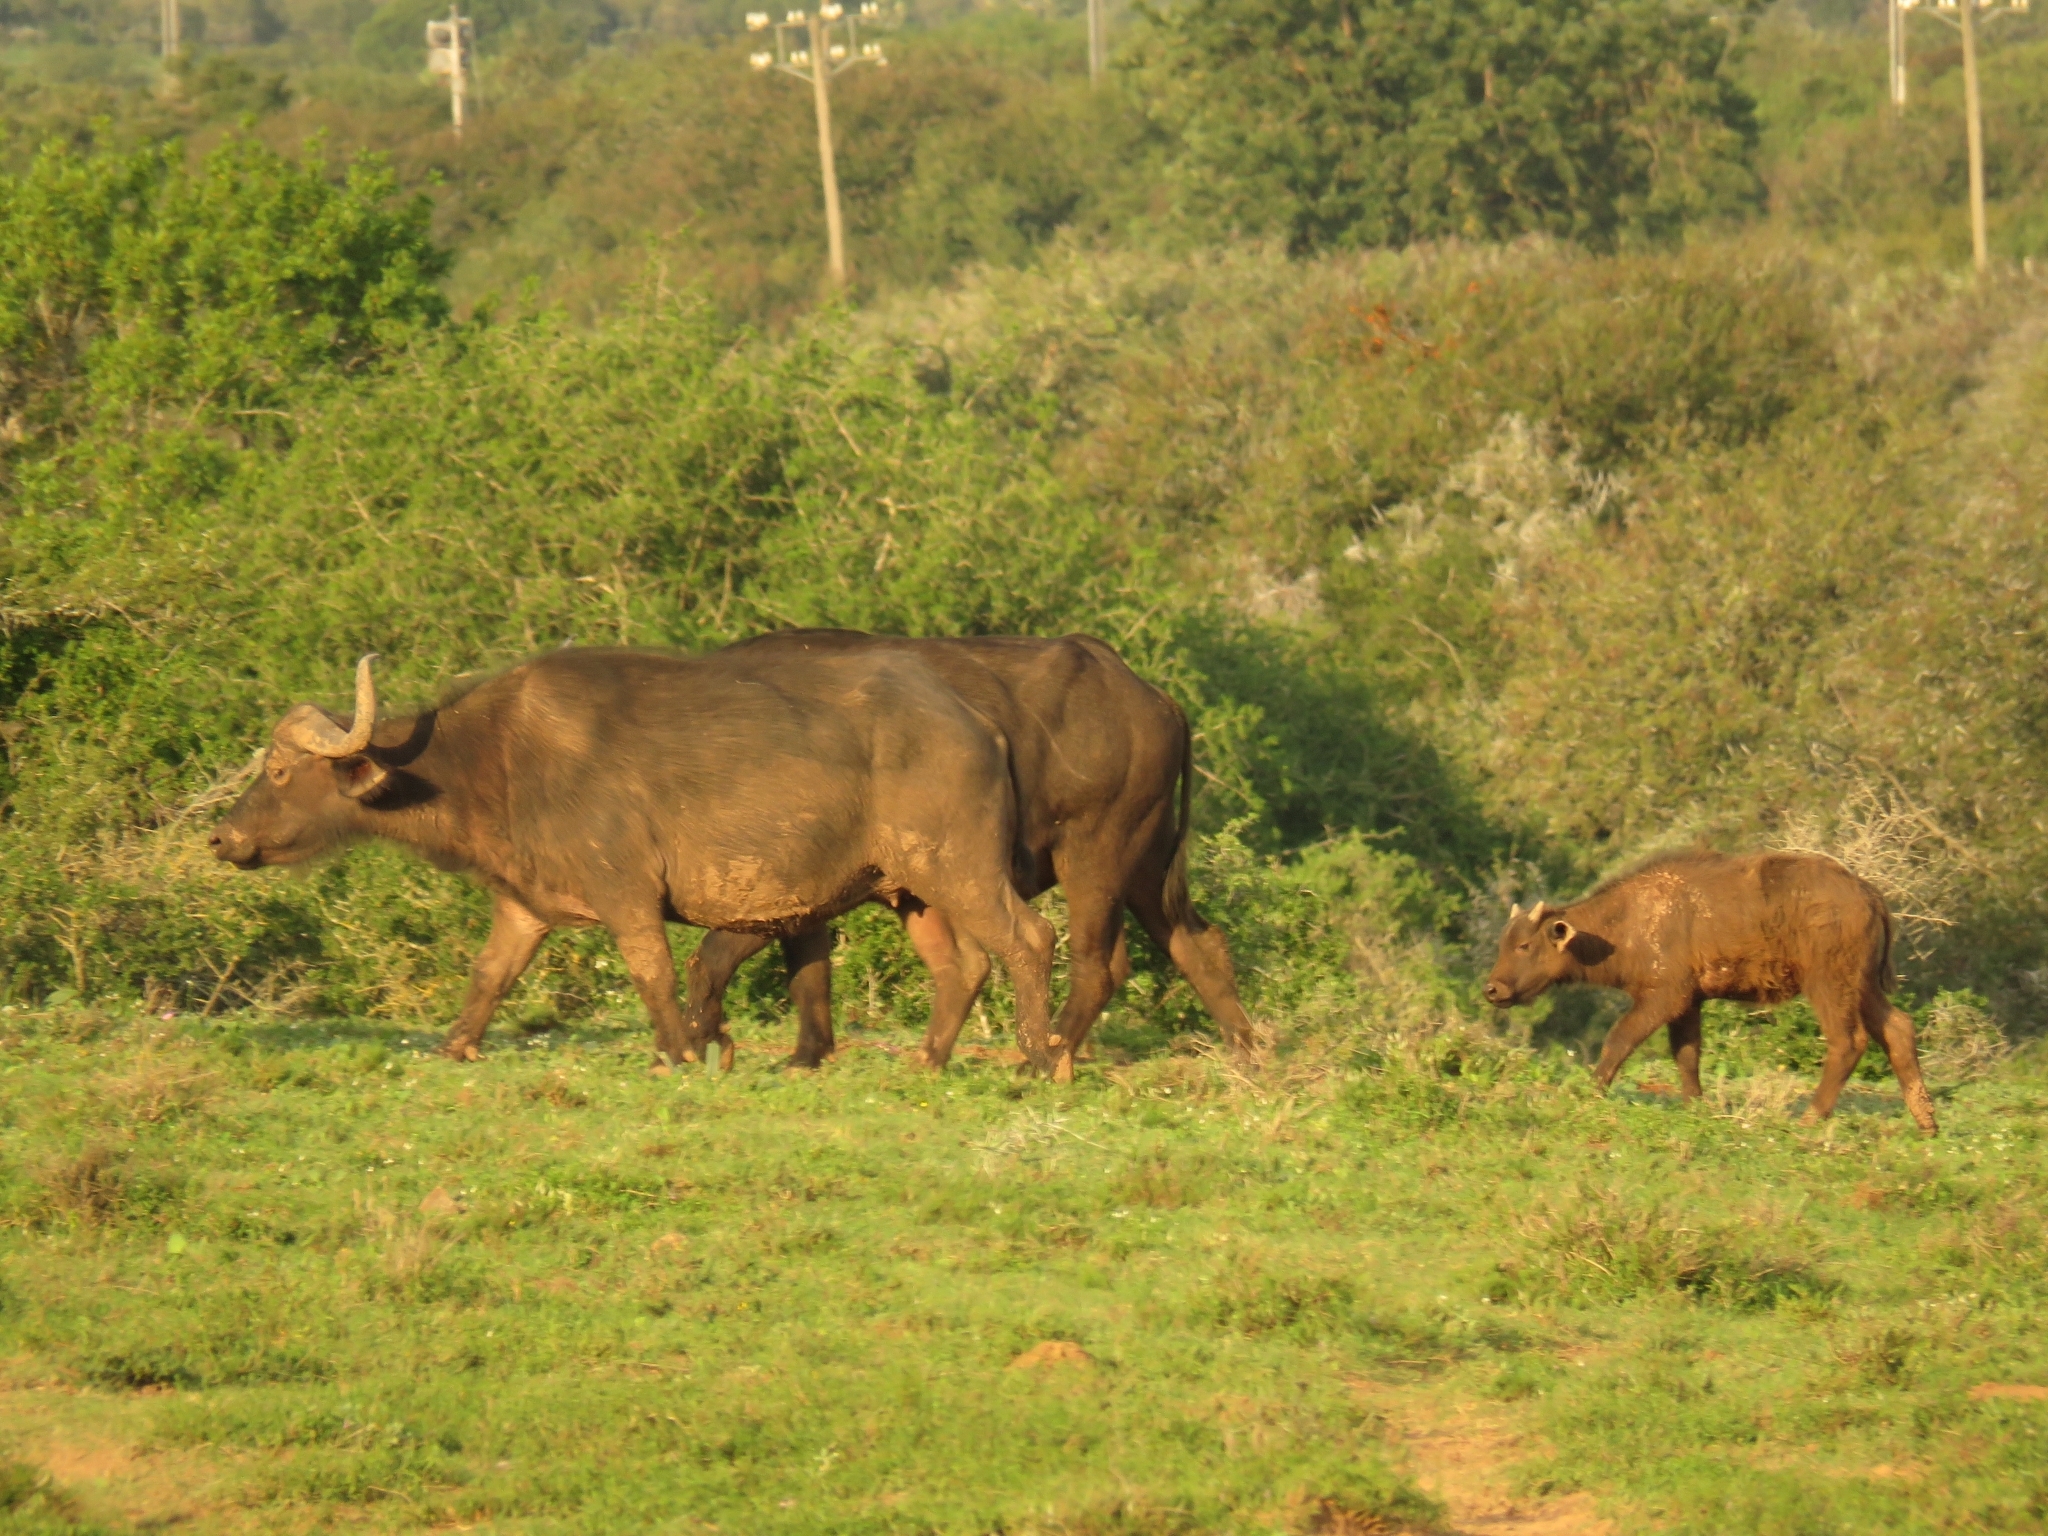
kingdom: Animalia
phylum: Chordata
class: Mammalia
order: Artiodactyla
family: Bovidae
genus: Syncerus
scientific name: Syncerus caffer
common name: African buffalo
